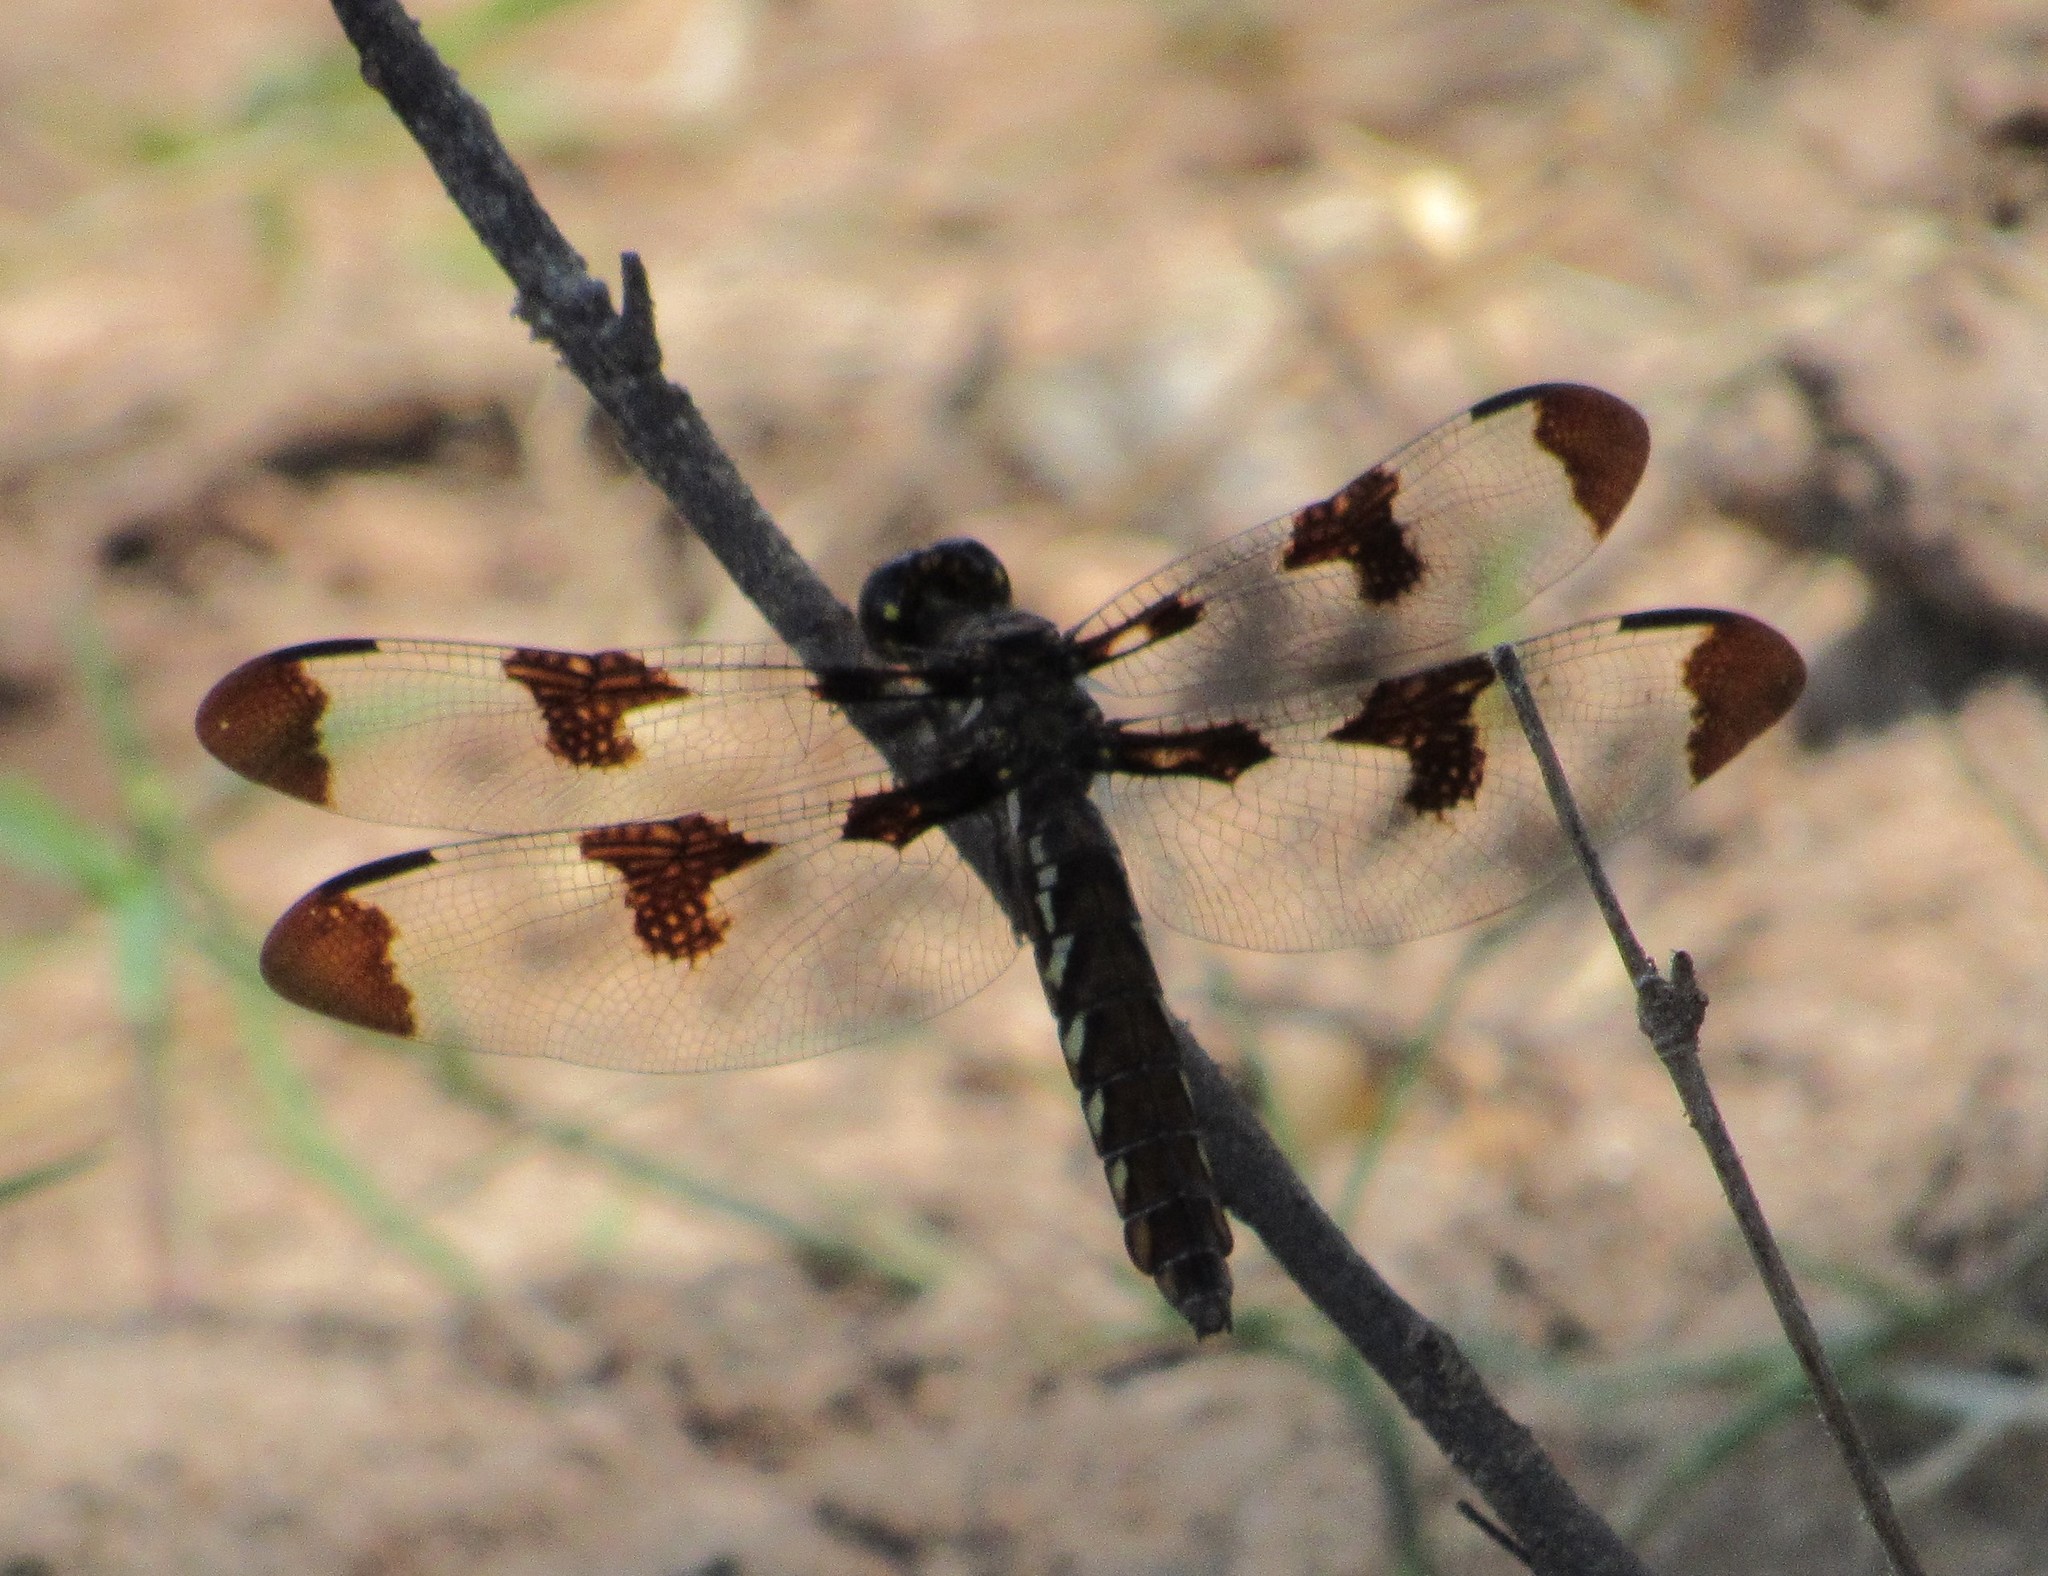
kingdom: Animalia
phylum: Arthropoda
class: Insecta
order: Odonata
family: Libellulidae
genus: Plathemis
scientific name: Plathemis lydia
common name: Common whitetail
